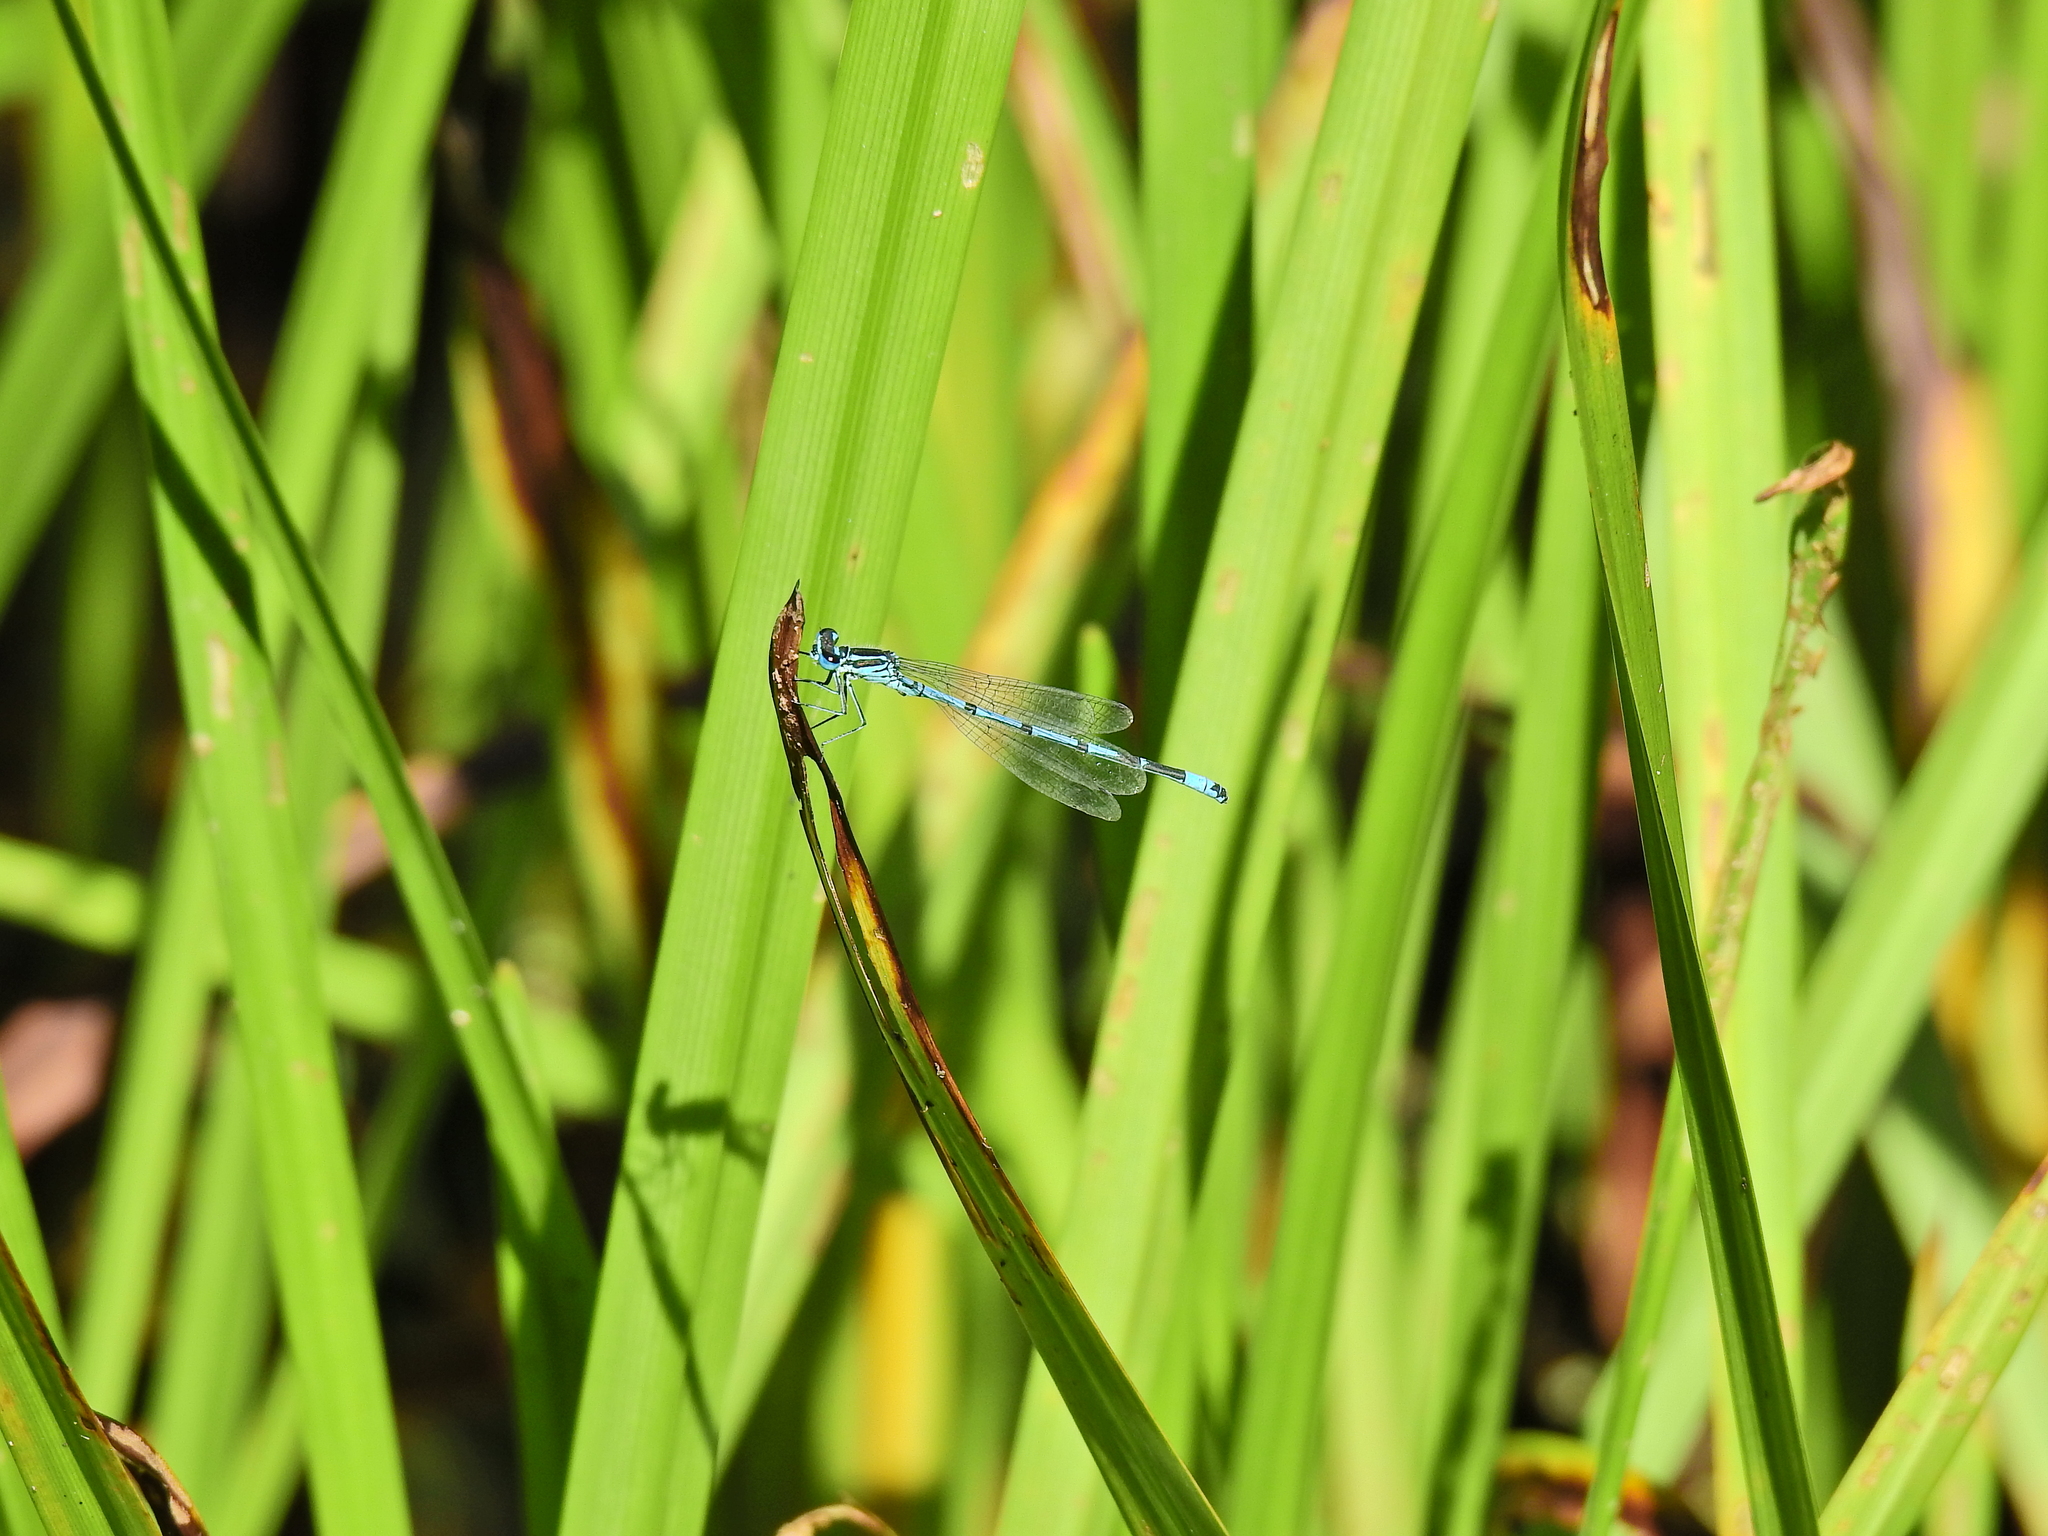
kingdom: Animalia
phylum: Arthropoda
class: Insecta
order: Odonata
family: Coenagrionidae
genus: Coenagrion
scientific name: Coenagrion puella
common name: Azure damselfly
